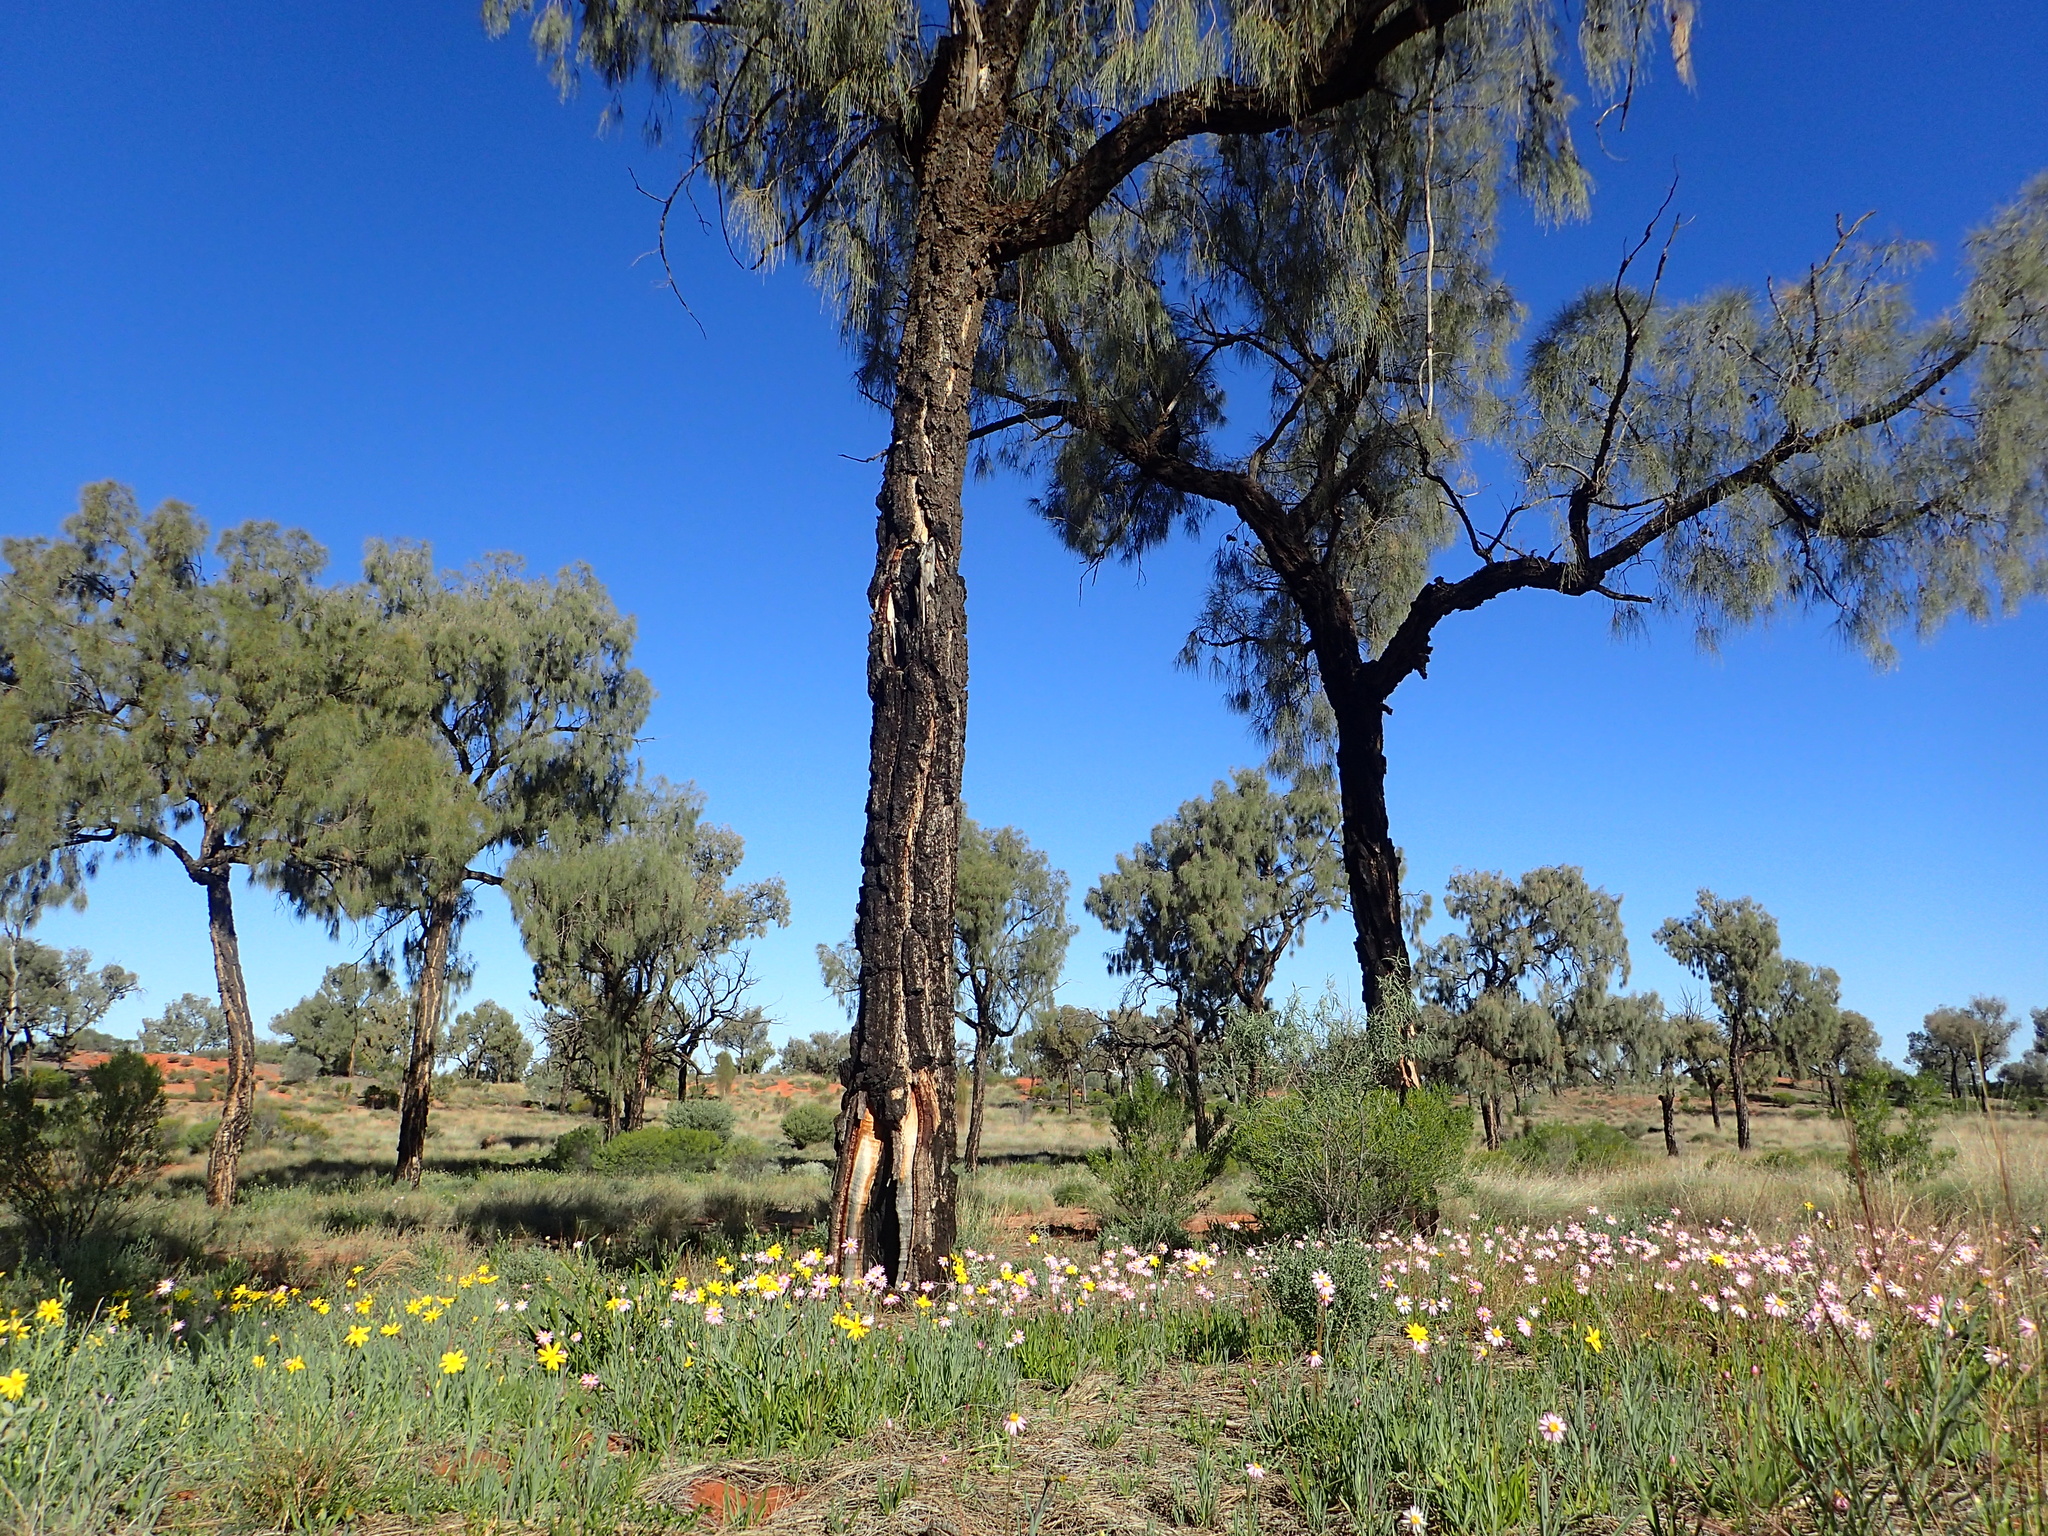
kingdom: Plantae
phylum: Tracheophyta
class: Magnoliopsida
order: Fagales
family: Casuarinaceae
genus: Allocasuarina
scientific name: Allocasuarina decaisneana
